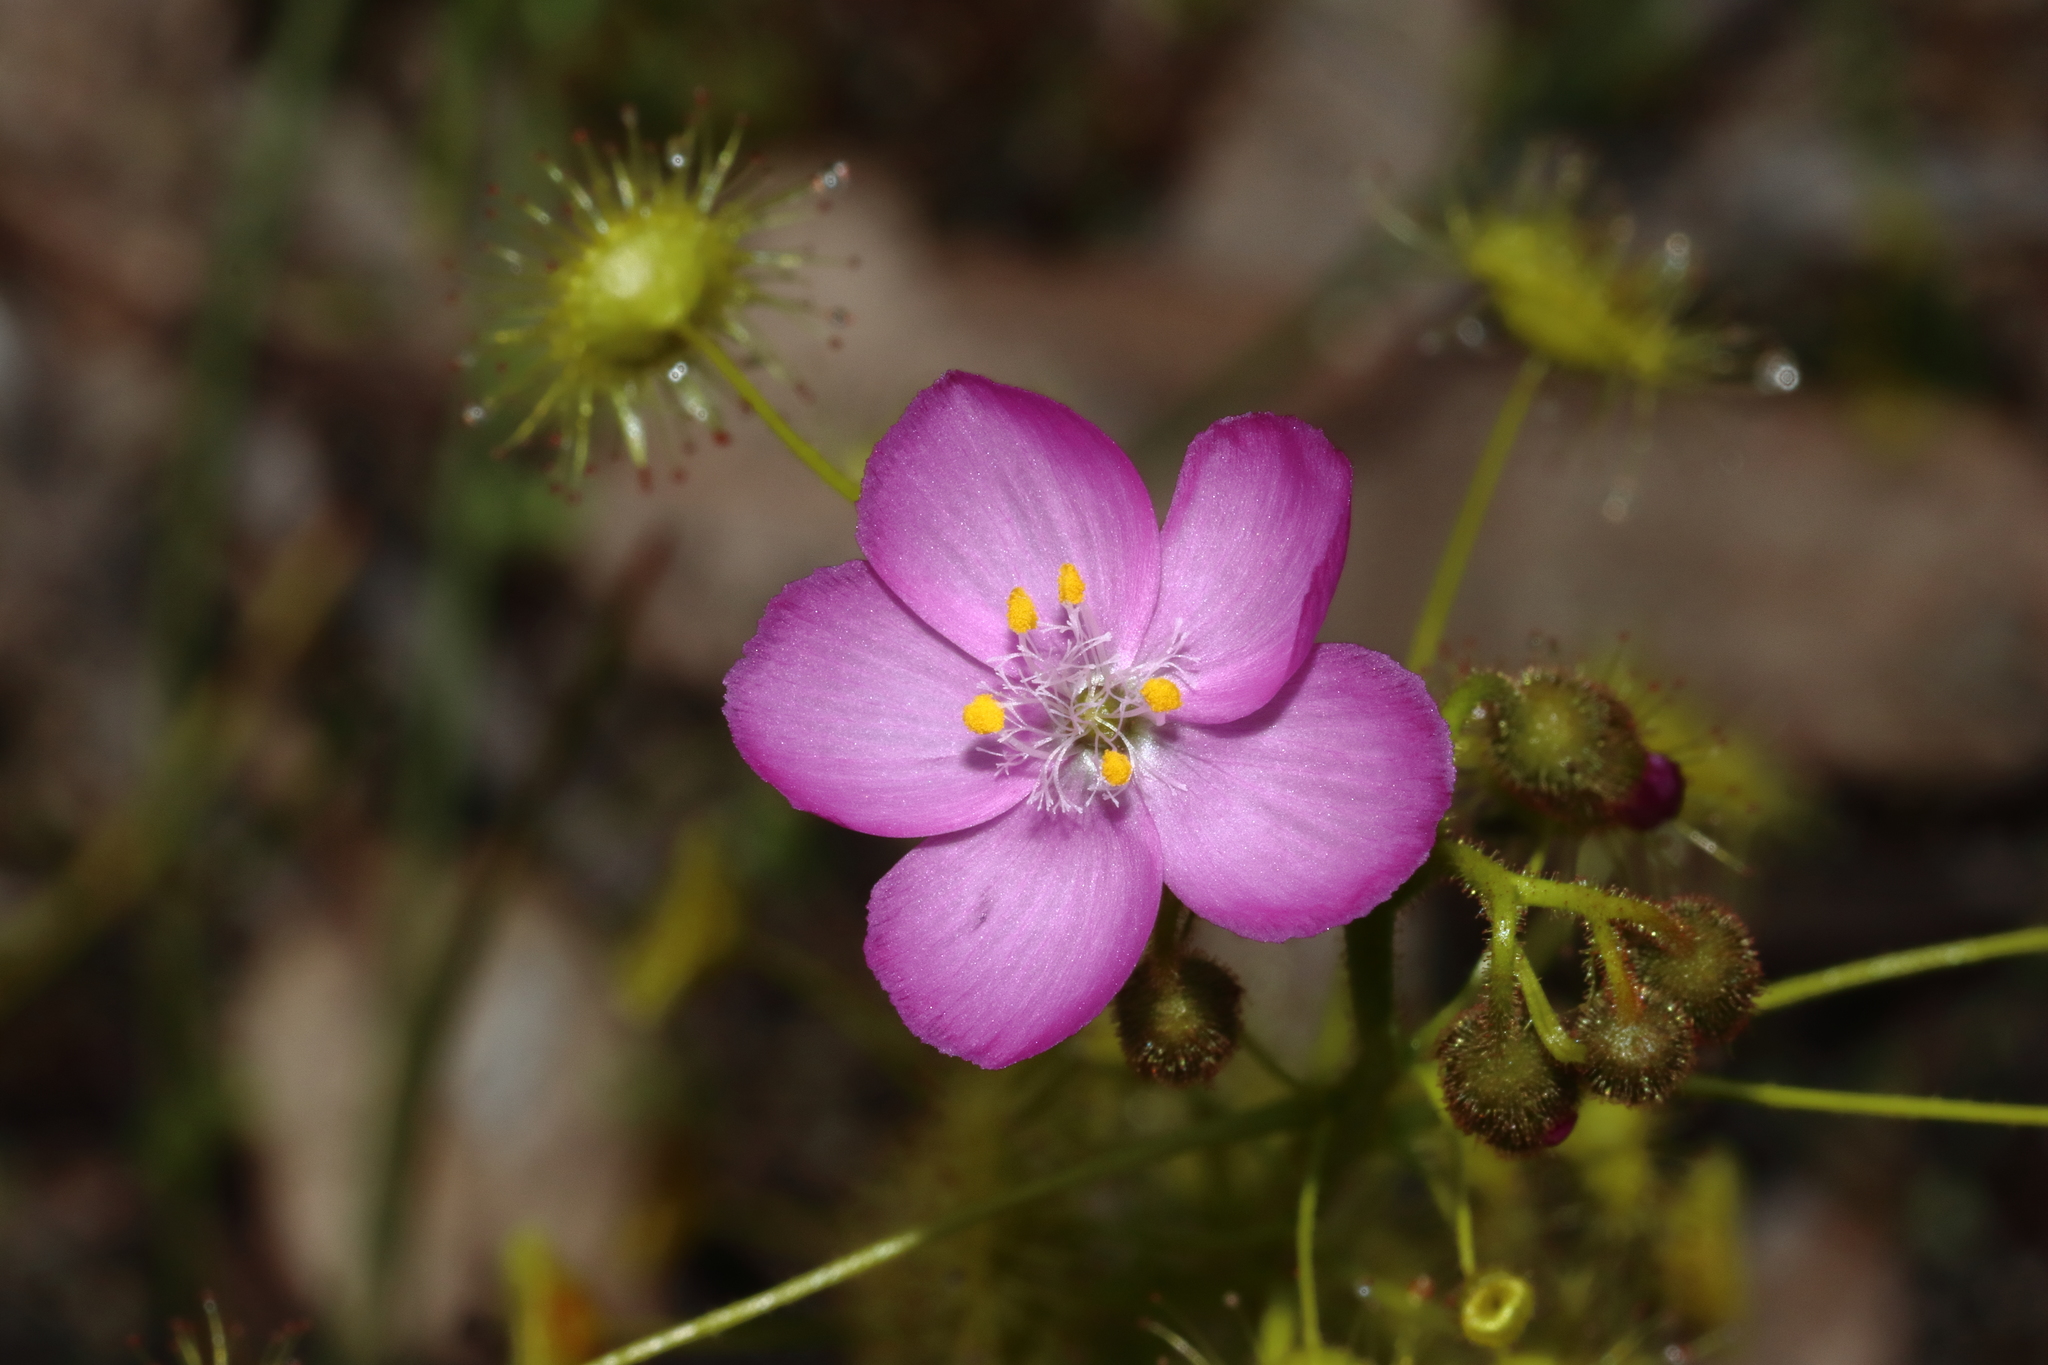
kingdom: Plantae
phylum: Tracheophyta
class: Magnoliopsida
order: Caryophyllales
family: Droseraceae
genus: Drosera
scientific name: Drosera stricticaulis
